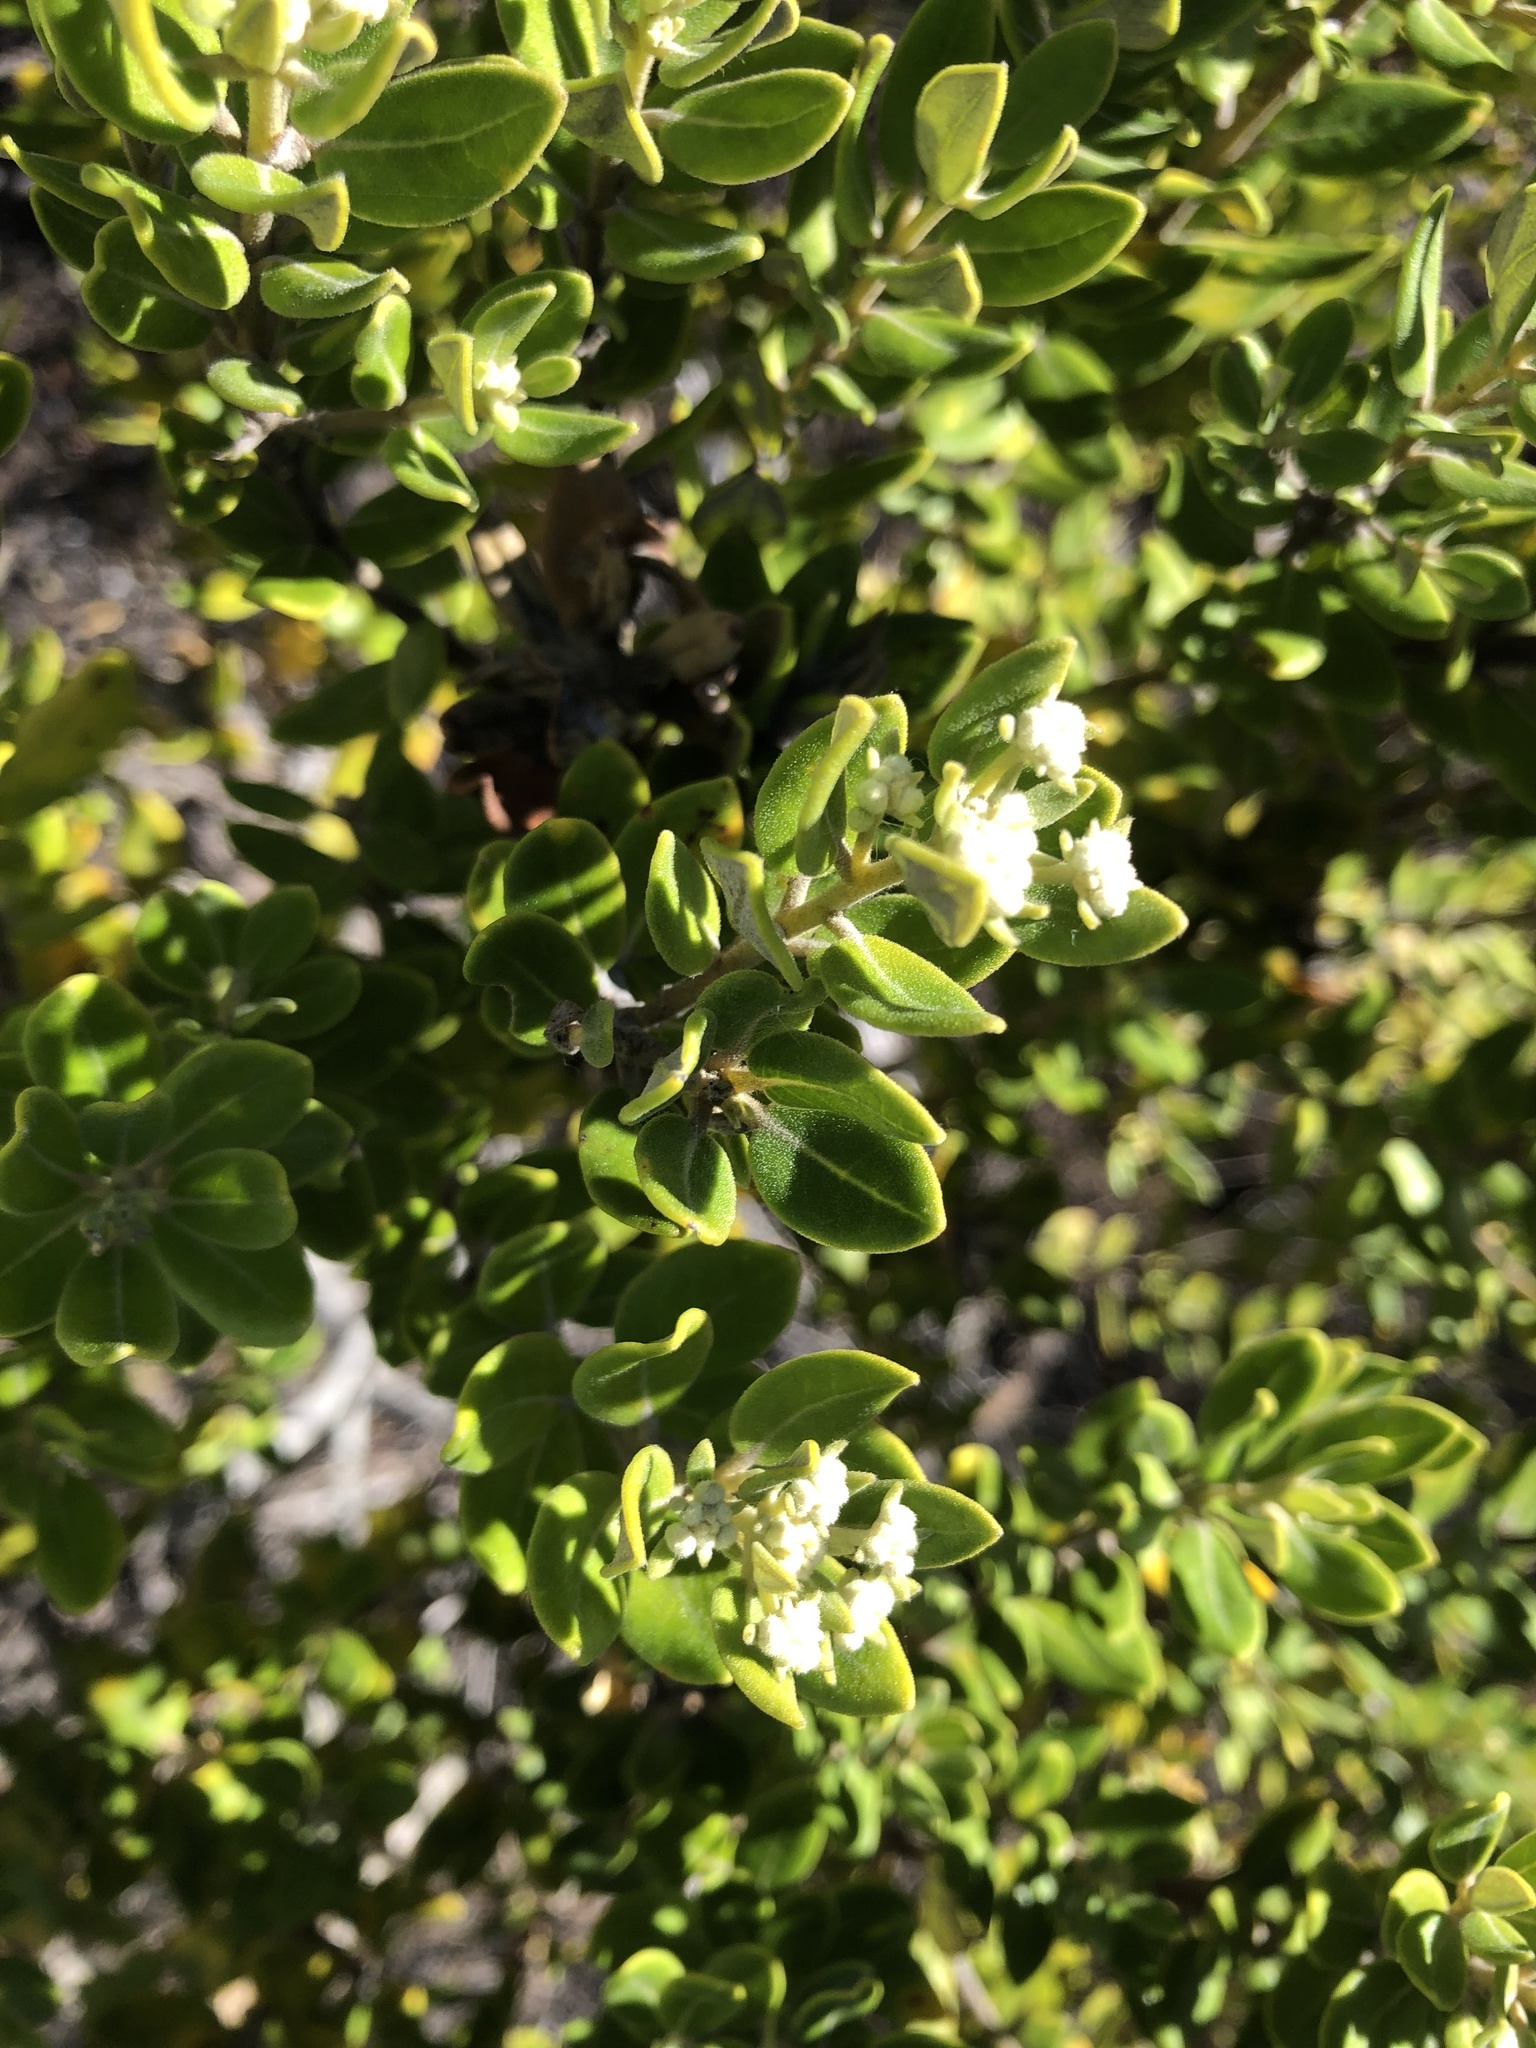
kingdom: Plantae
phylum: Tracheophyta
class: Magnoliopsida
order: Rosales
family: Rhamnaceae
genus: Phylica
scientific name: Phylica buxifolia
